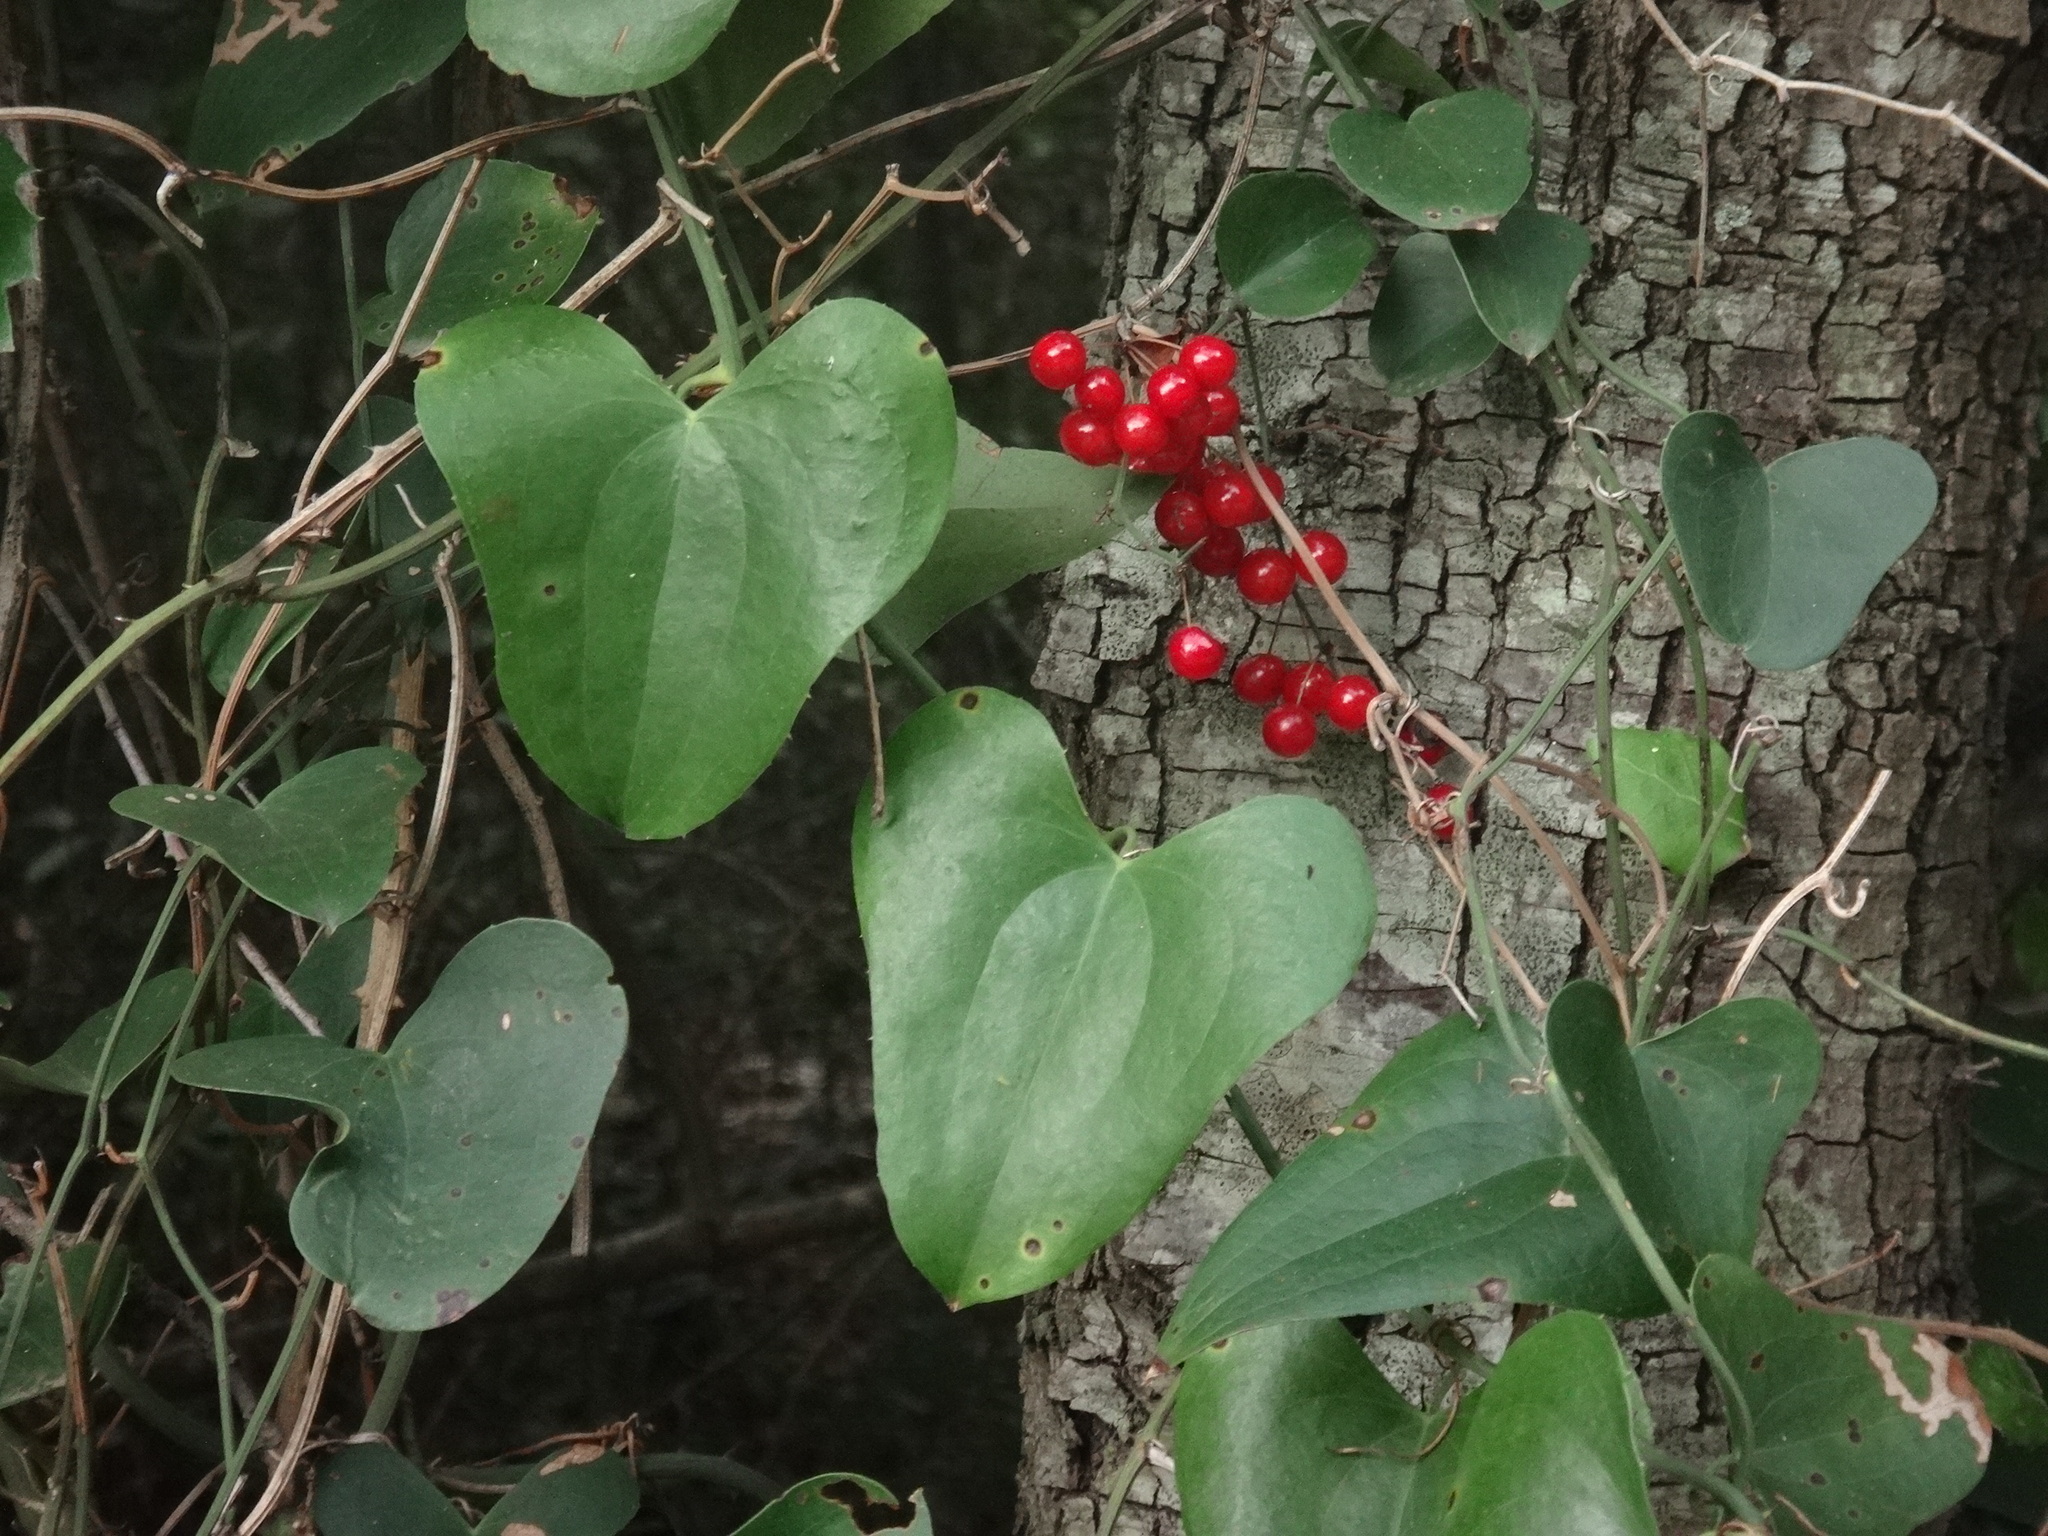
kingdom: Plantae
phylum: Tracheophyta
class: Liliopsida
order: Liliales
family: Smilacaceae
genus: Smilax
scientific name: Smilax aspera
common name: Common smilax
